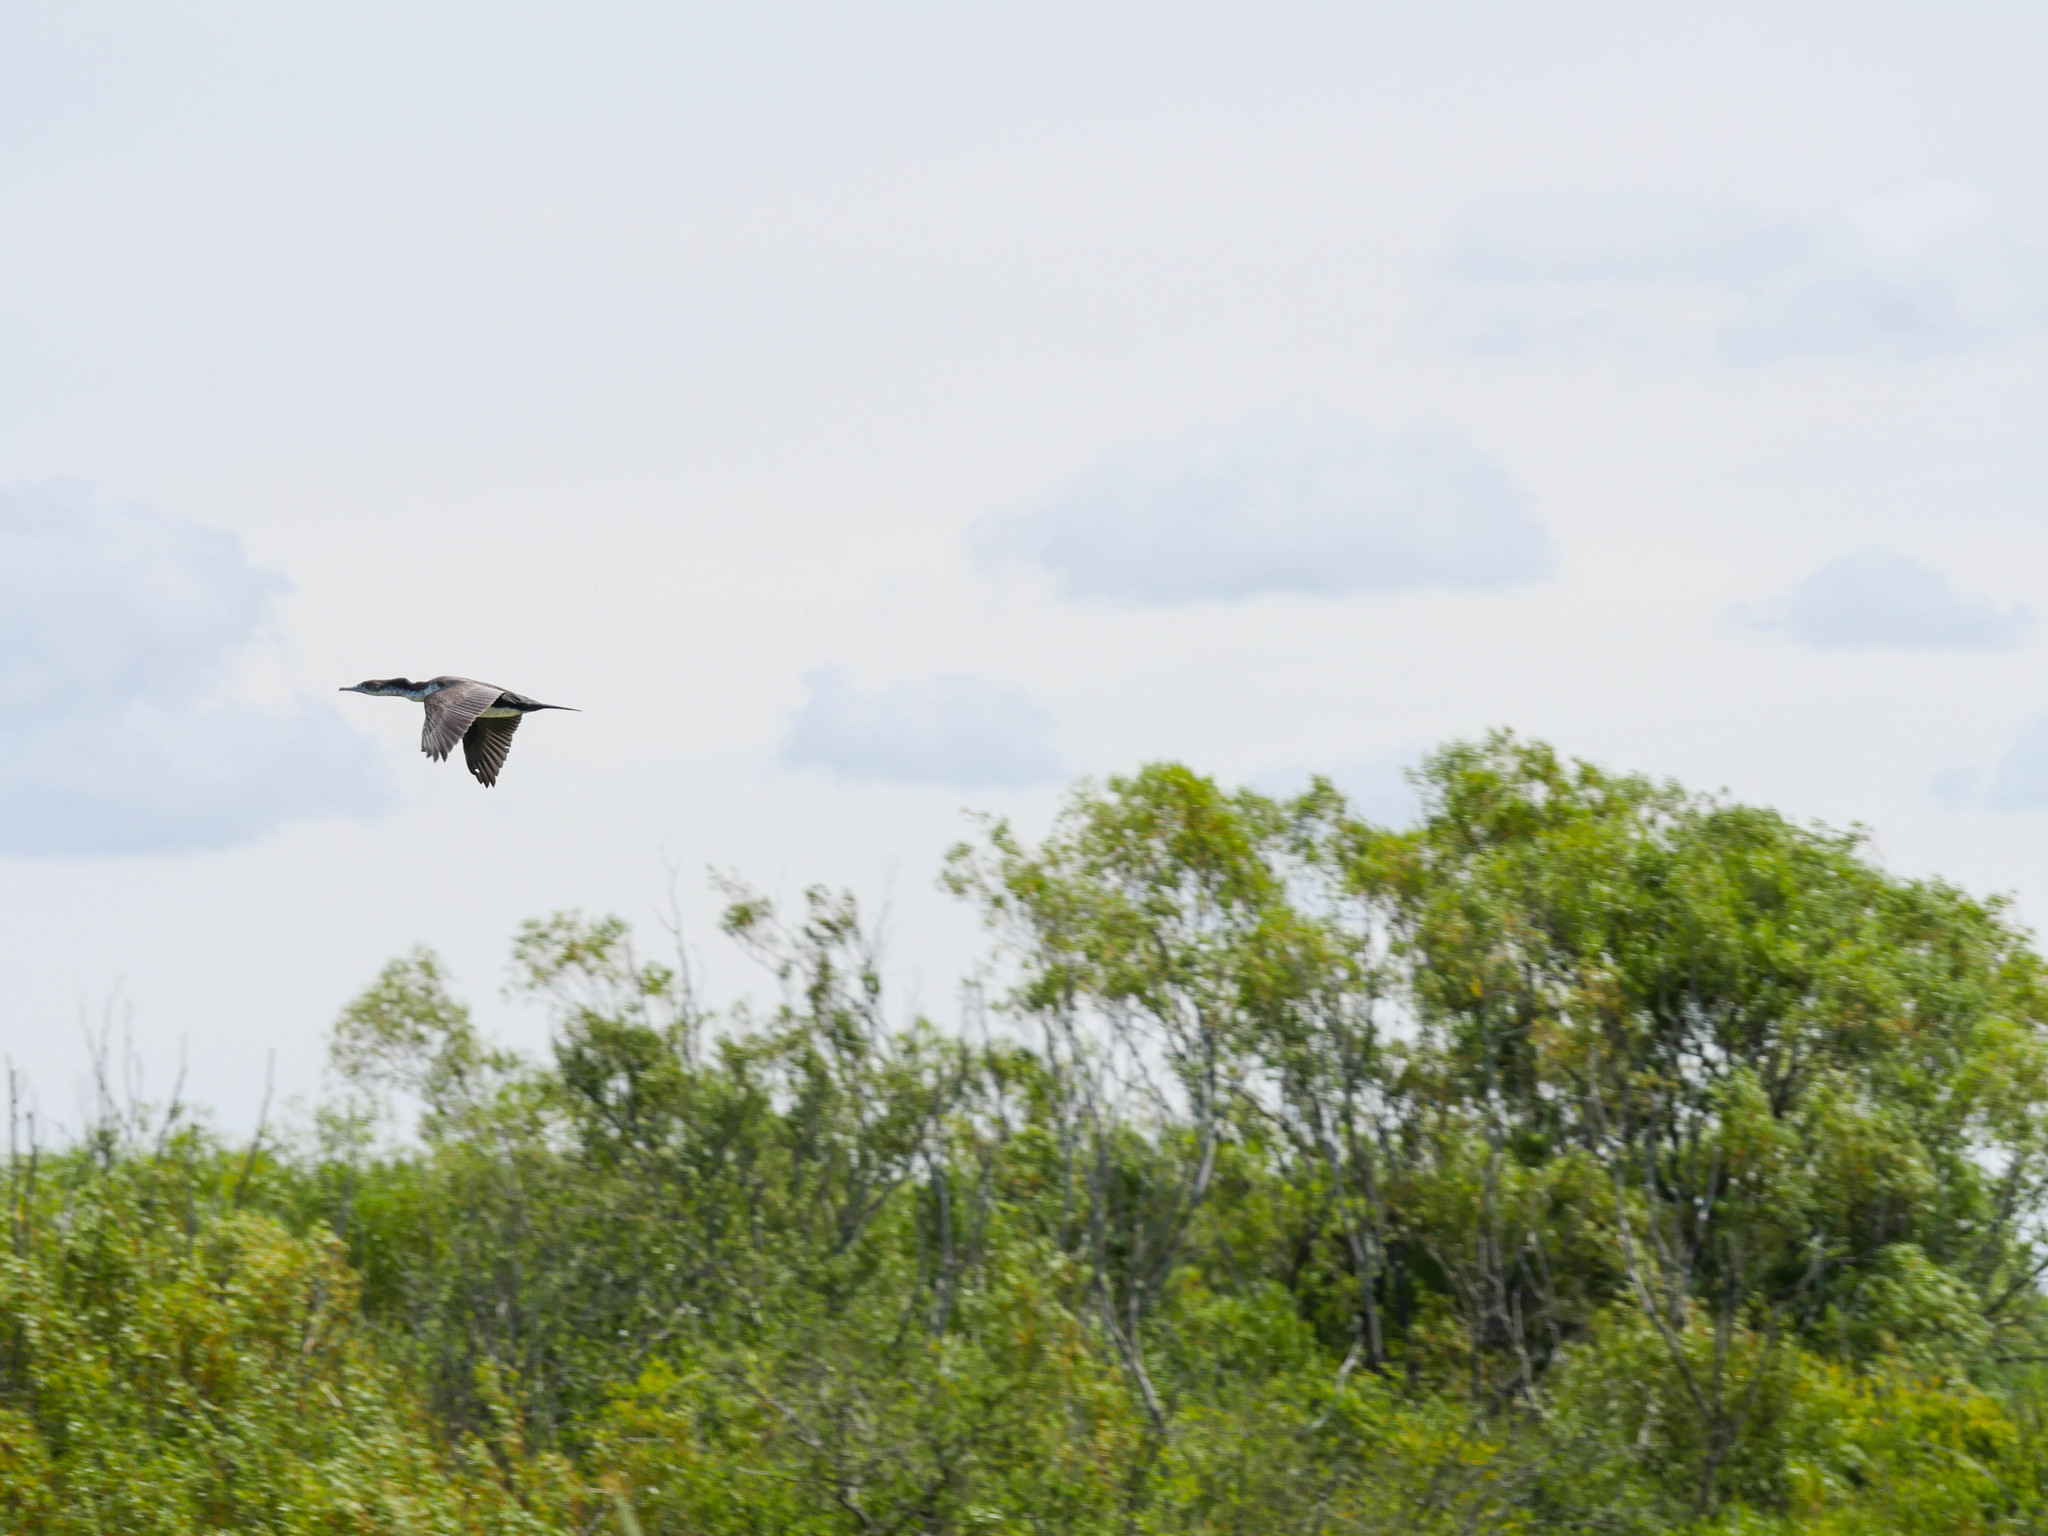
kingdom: Animalia
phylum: Chordata
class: Aves
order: Suliformes
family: Phalacrocoracidae
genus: Phalacrocorax
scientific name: Phalacrocorax varius
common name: Pied cormorant
